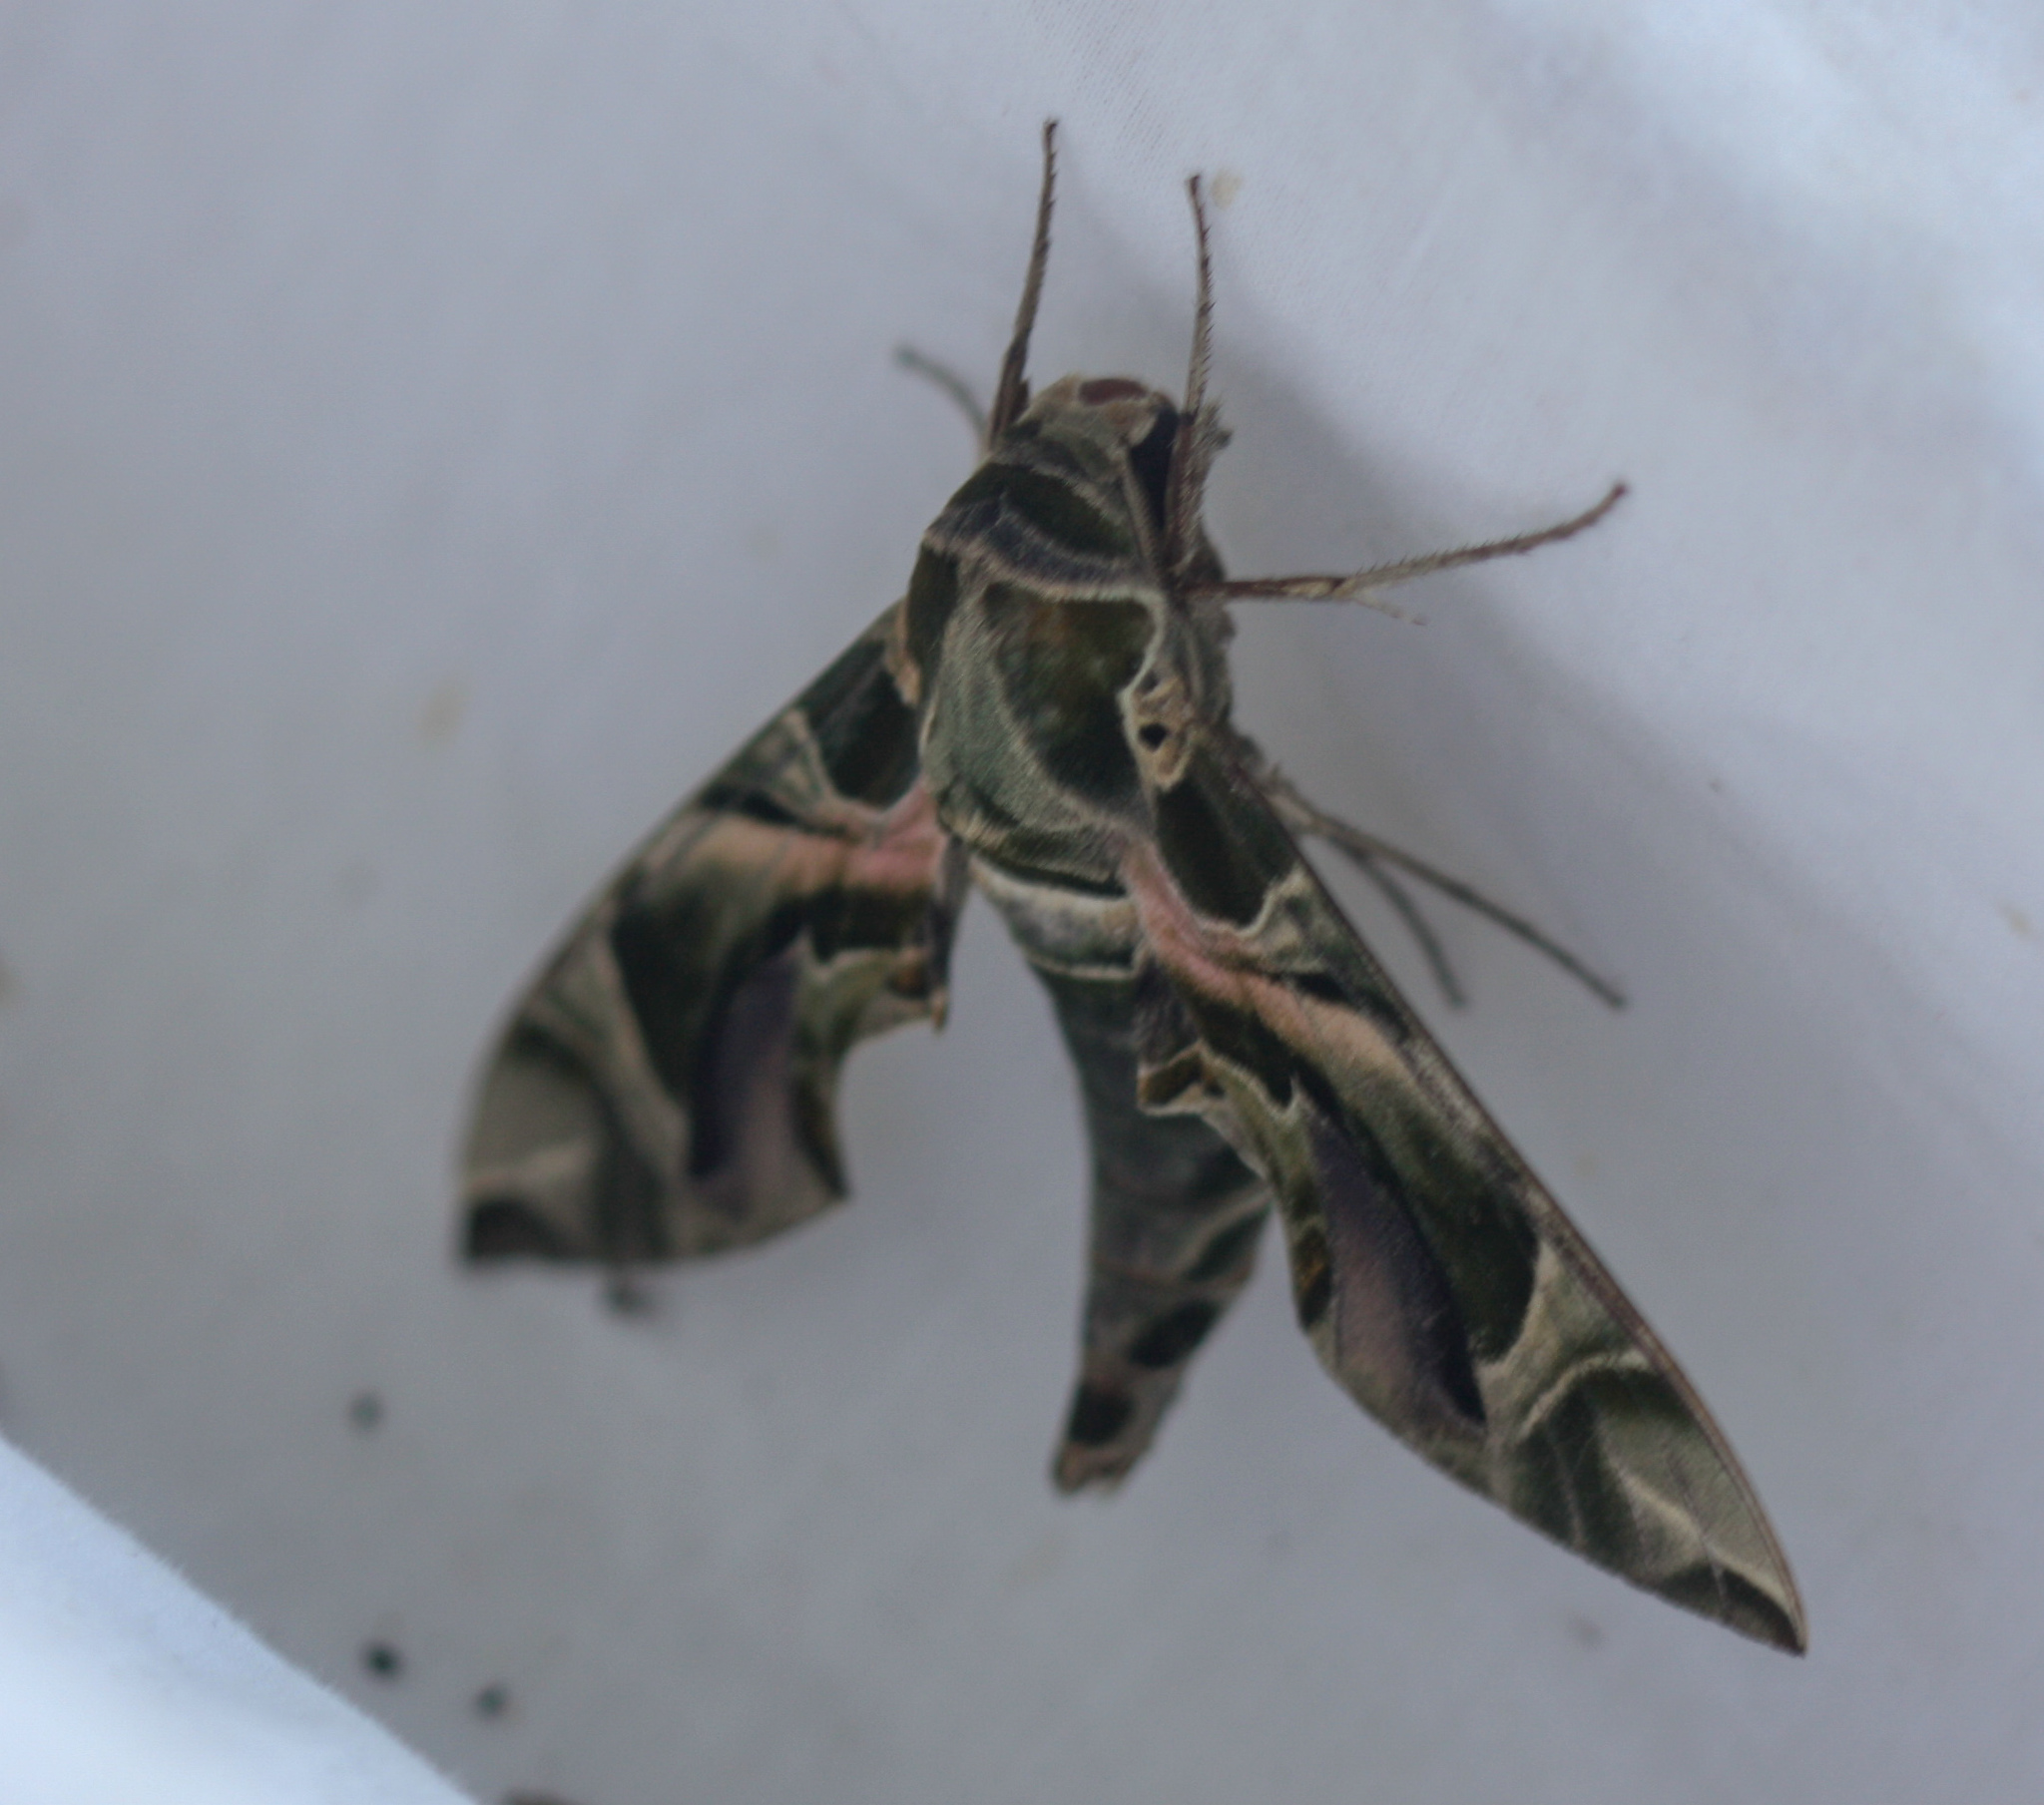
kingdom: Animalia
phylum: Arthropoda
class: Insecta
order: Lepidoptera
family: Sphingidae
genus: Daphnis
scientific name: Daphnis nerii
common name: Oleander hawk-moth
